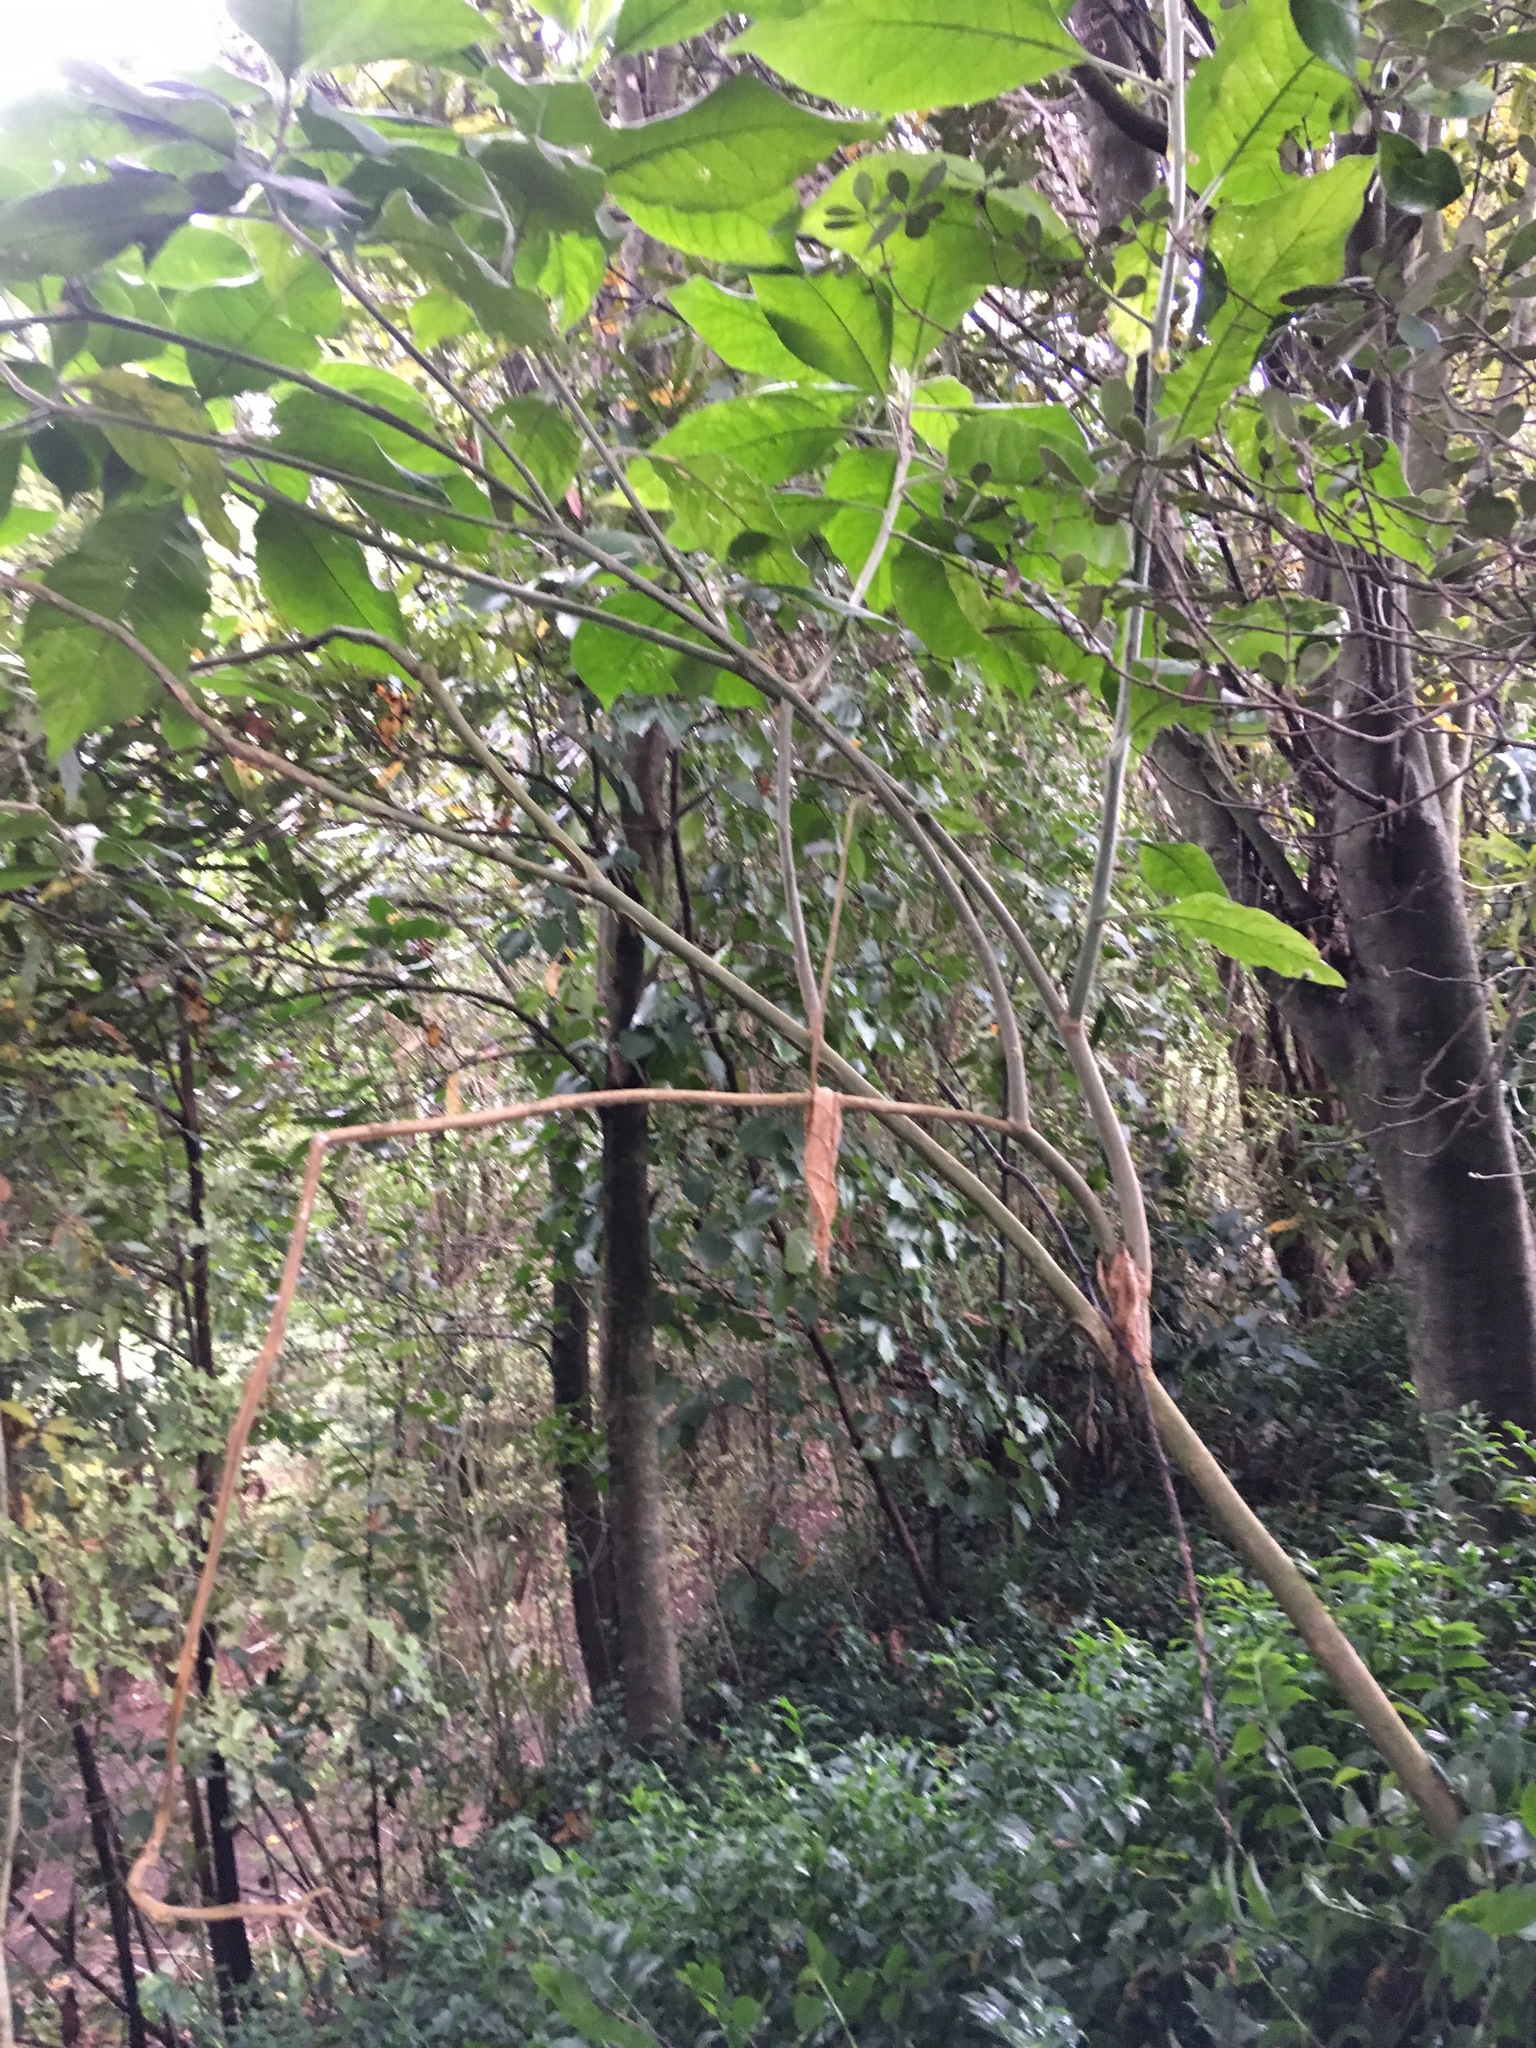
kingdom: Plantae
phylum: Tracheophyta
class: Magnoliopsida
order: Solanales
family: Solanaceae
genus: Solanum
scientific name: Solanum mauritianum
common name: Earleaf nightshade
